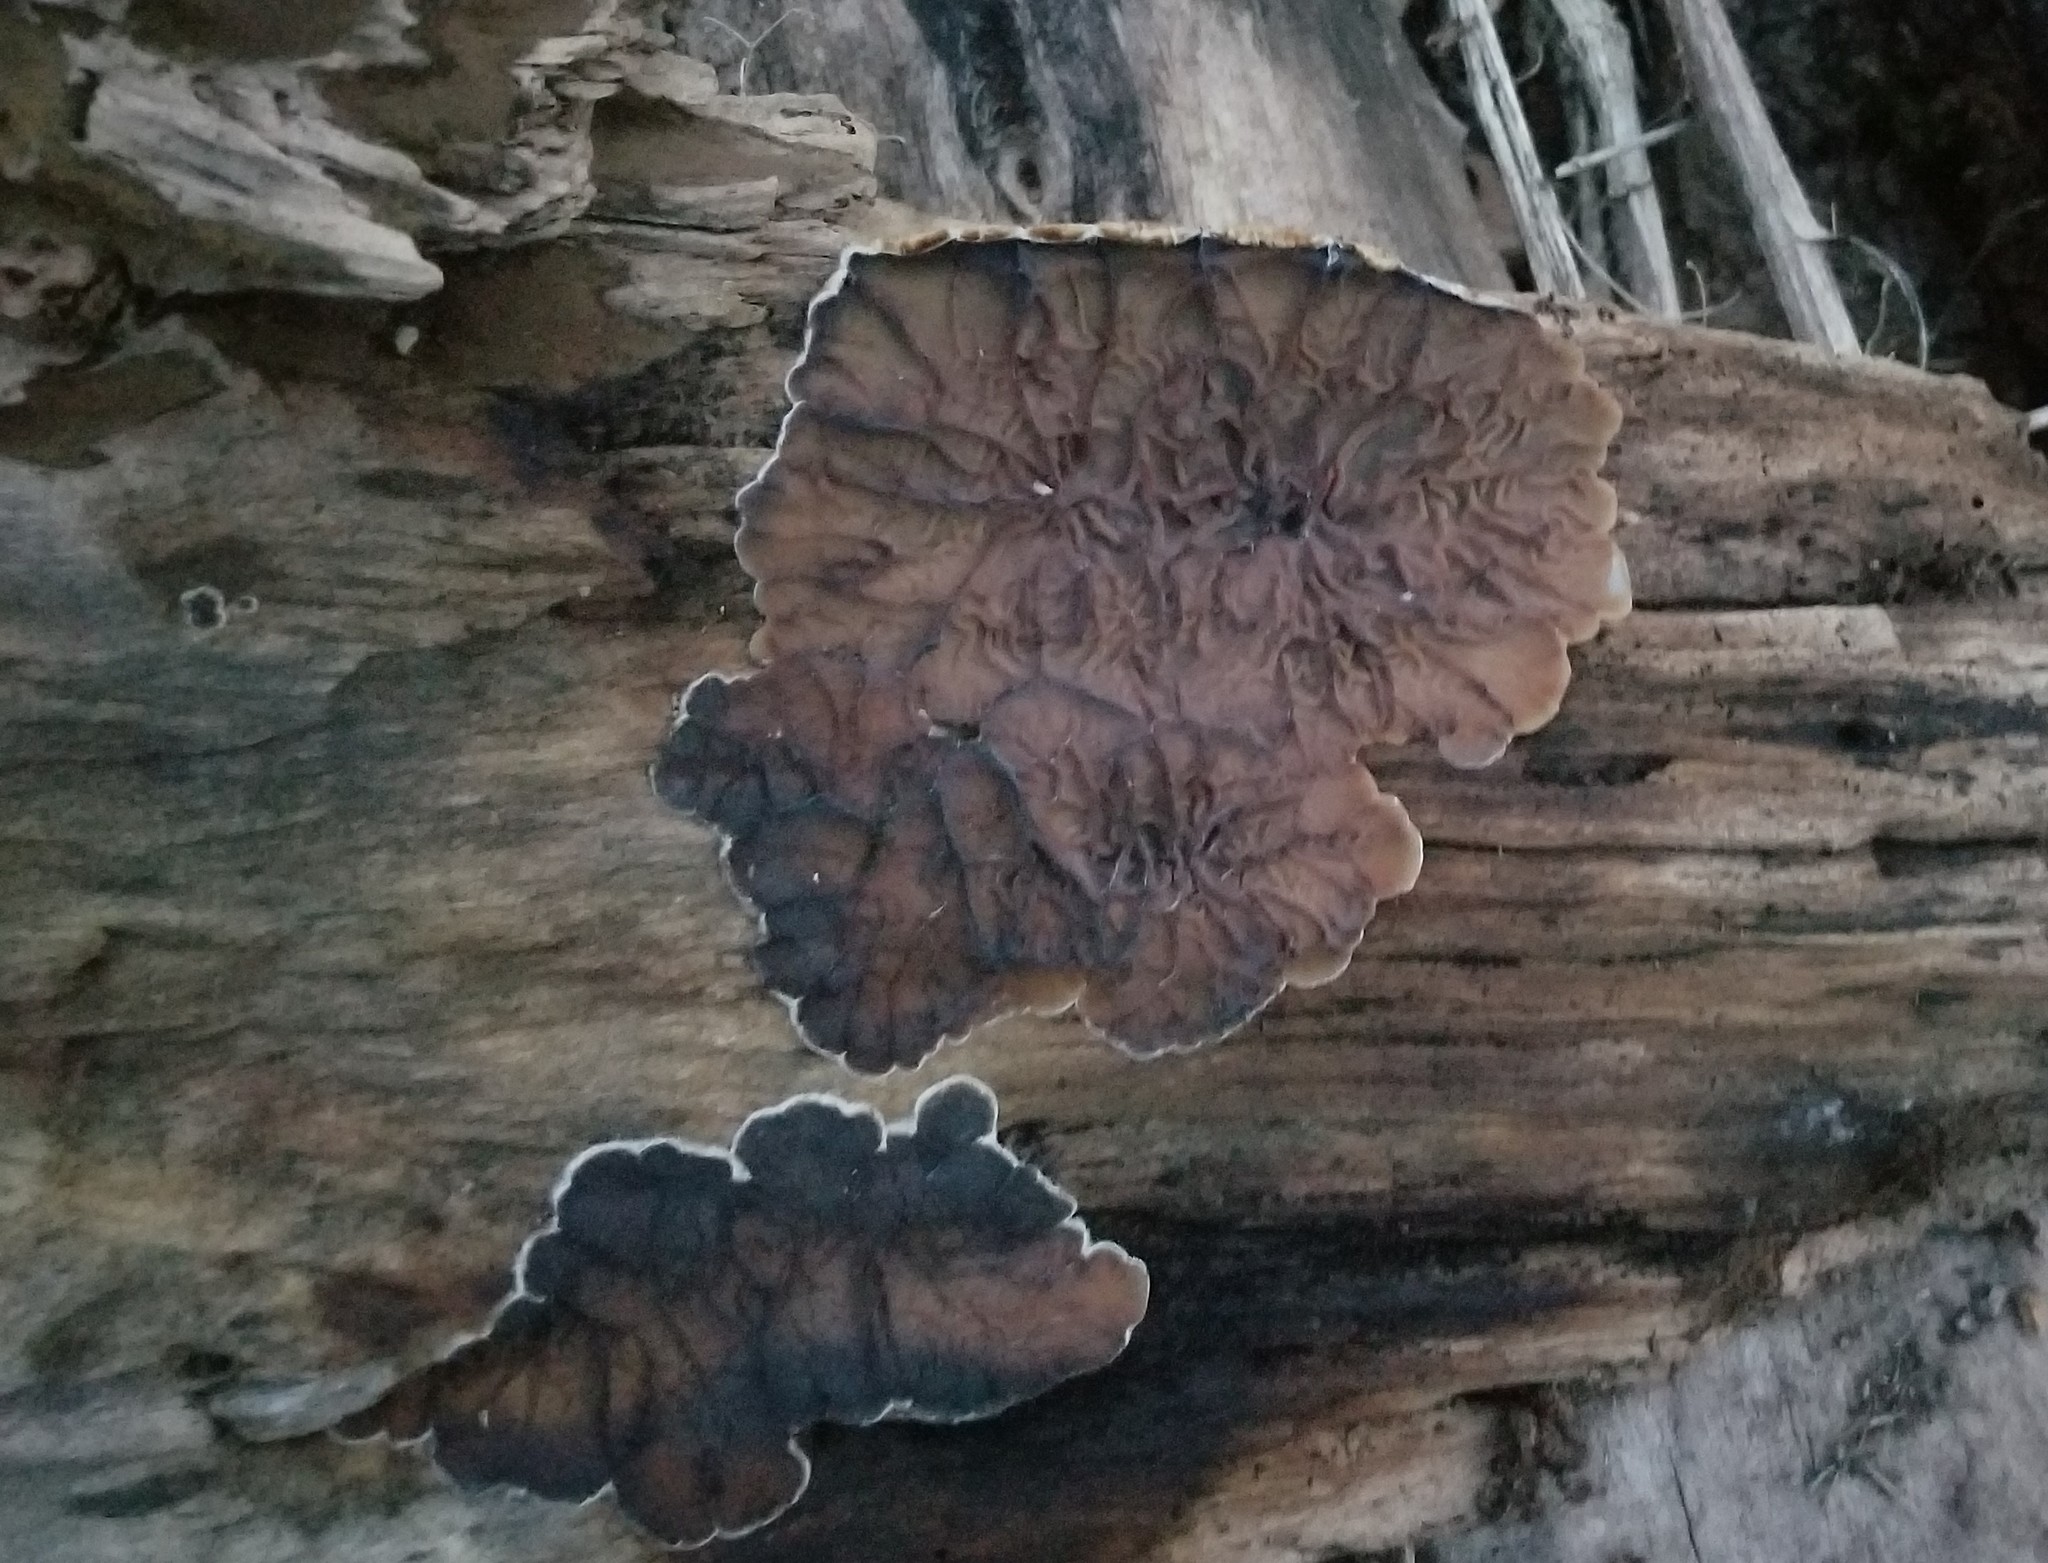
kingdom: Fungi
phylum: Basidiomycota
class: Agaricomycetes
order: Auriculariales
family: Auriculariaceae
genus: Auricularia
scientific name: Auricularia mesenterica
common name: Tripe fungus
